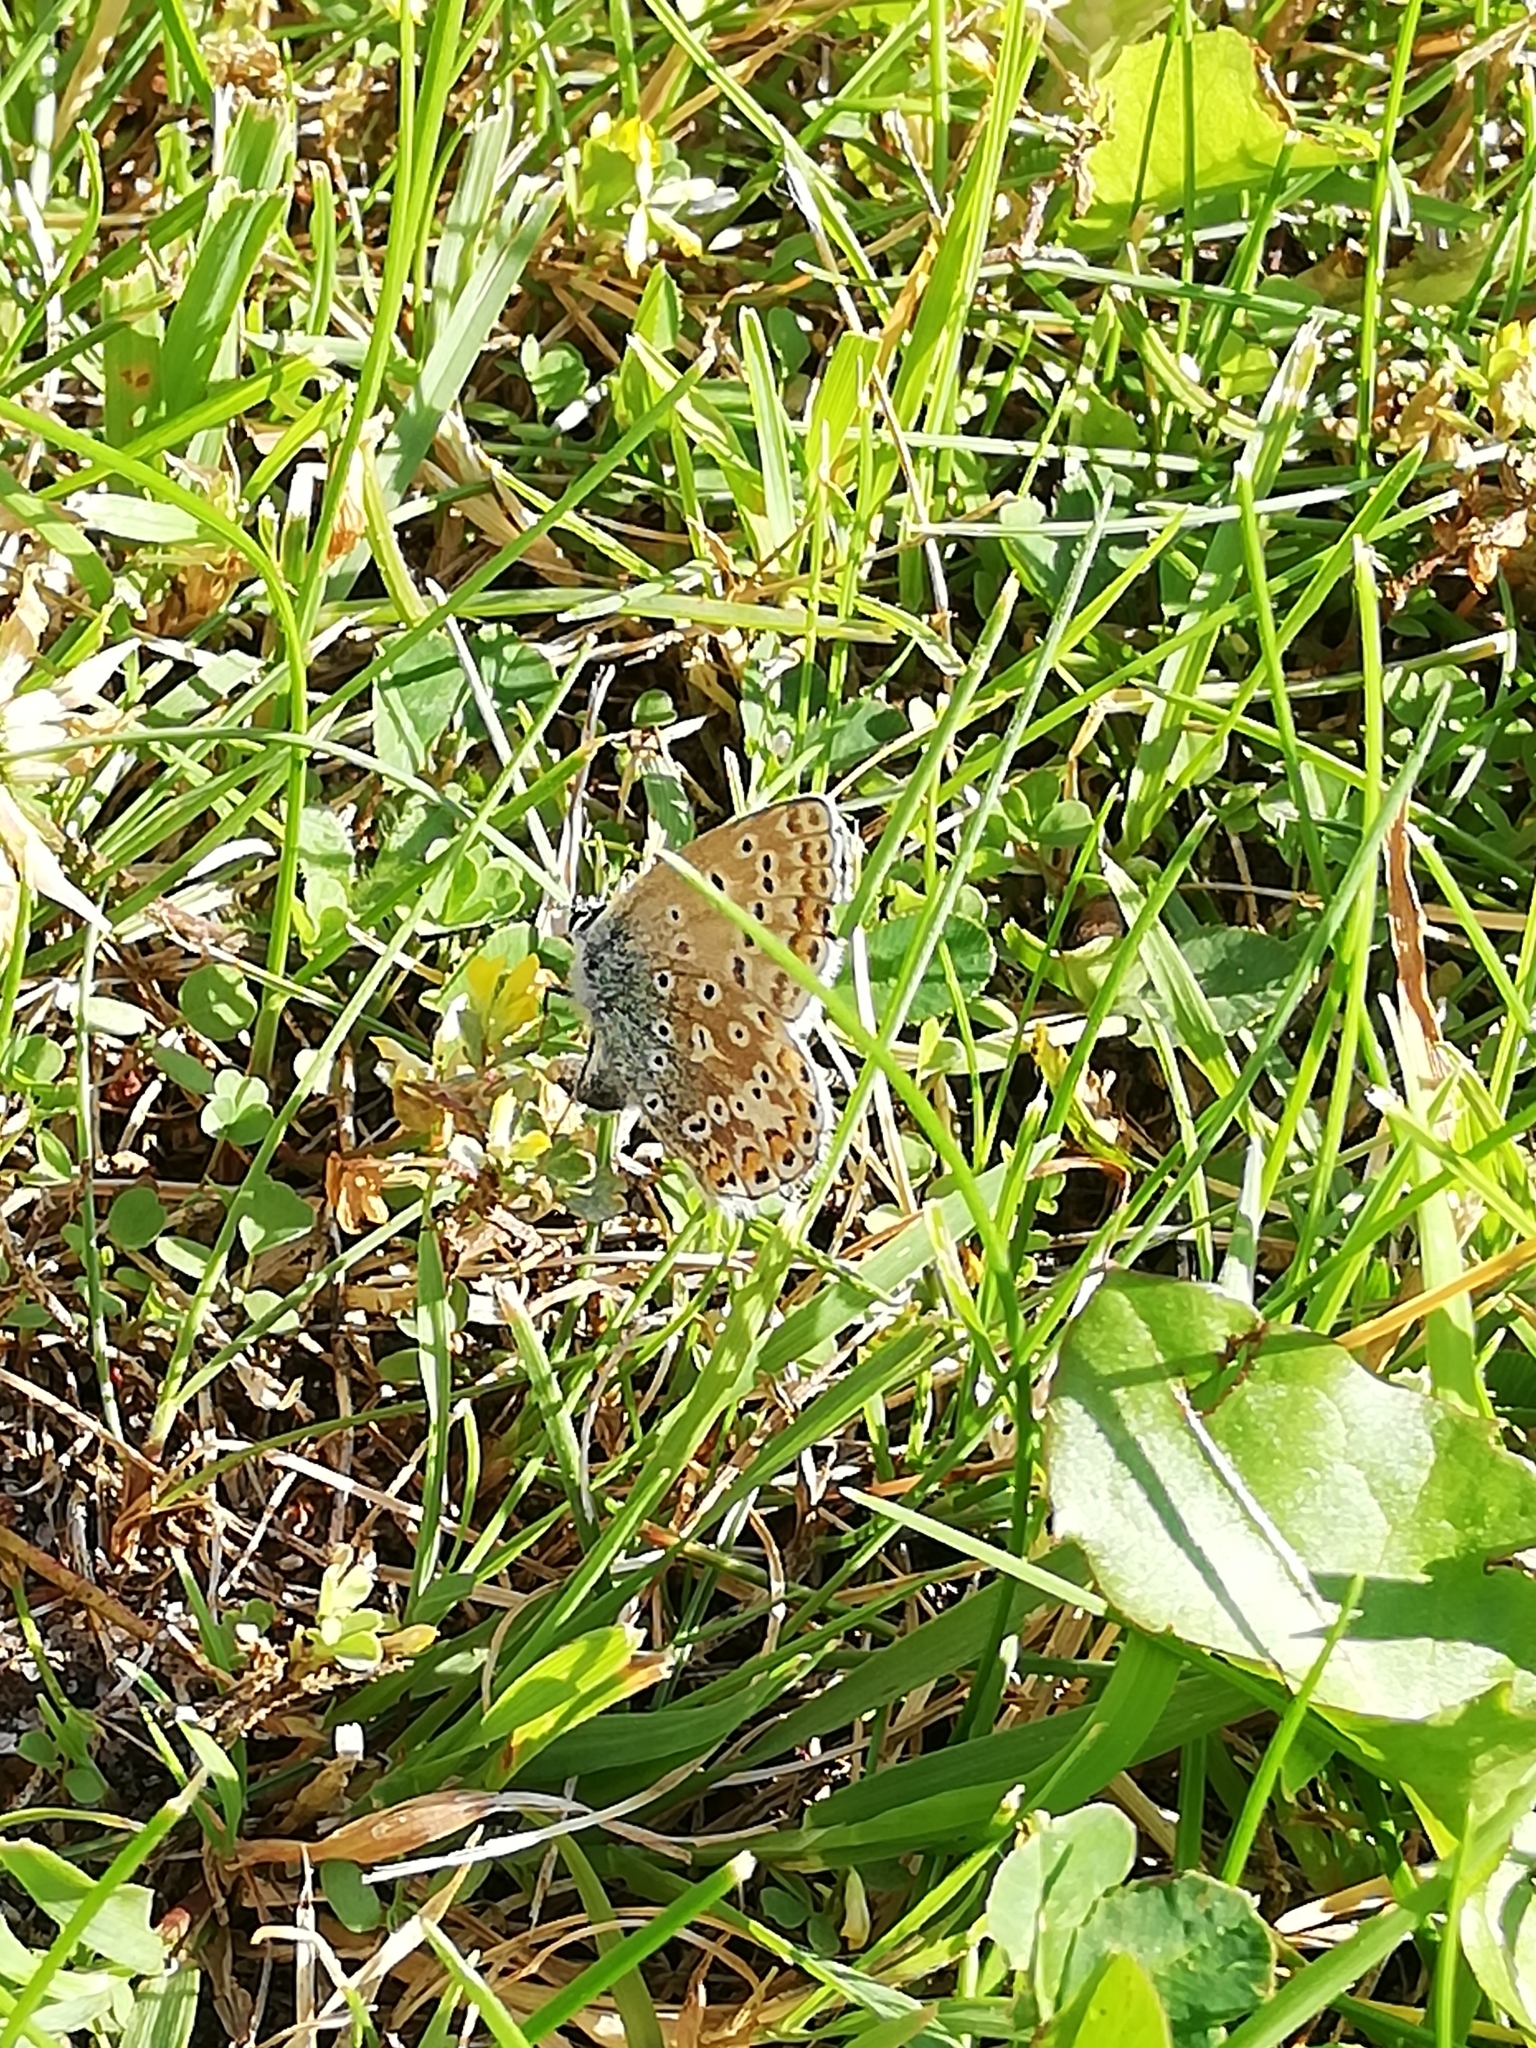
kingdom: Animalia
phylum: Arthropoda
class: Insecta
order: Lepidoptera
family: Lycaenidae
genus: Polyommatus
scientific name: Polyommatus icarus
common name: Common blue
